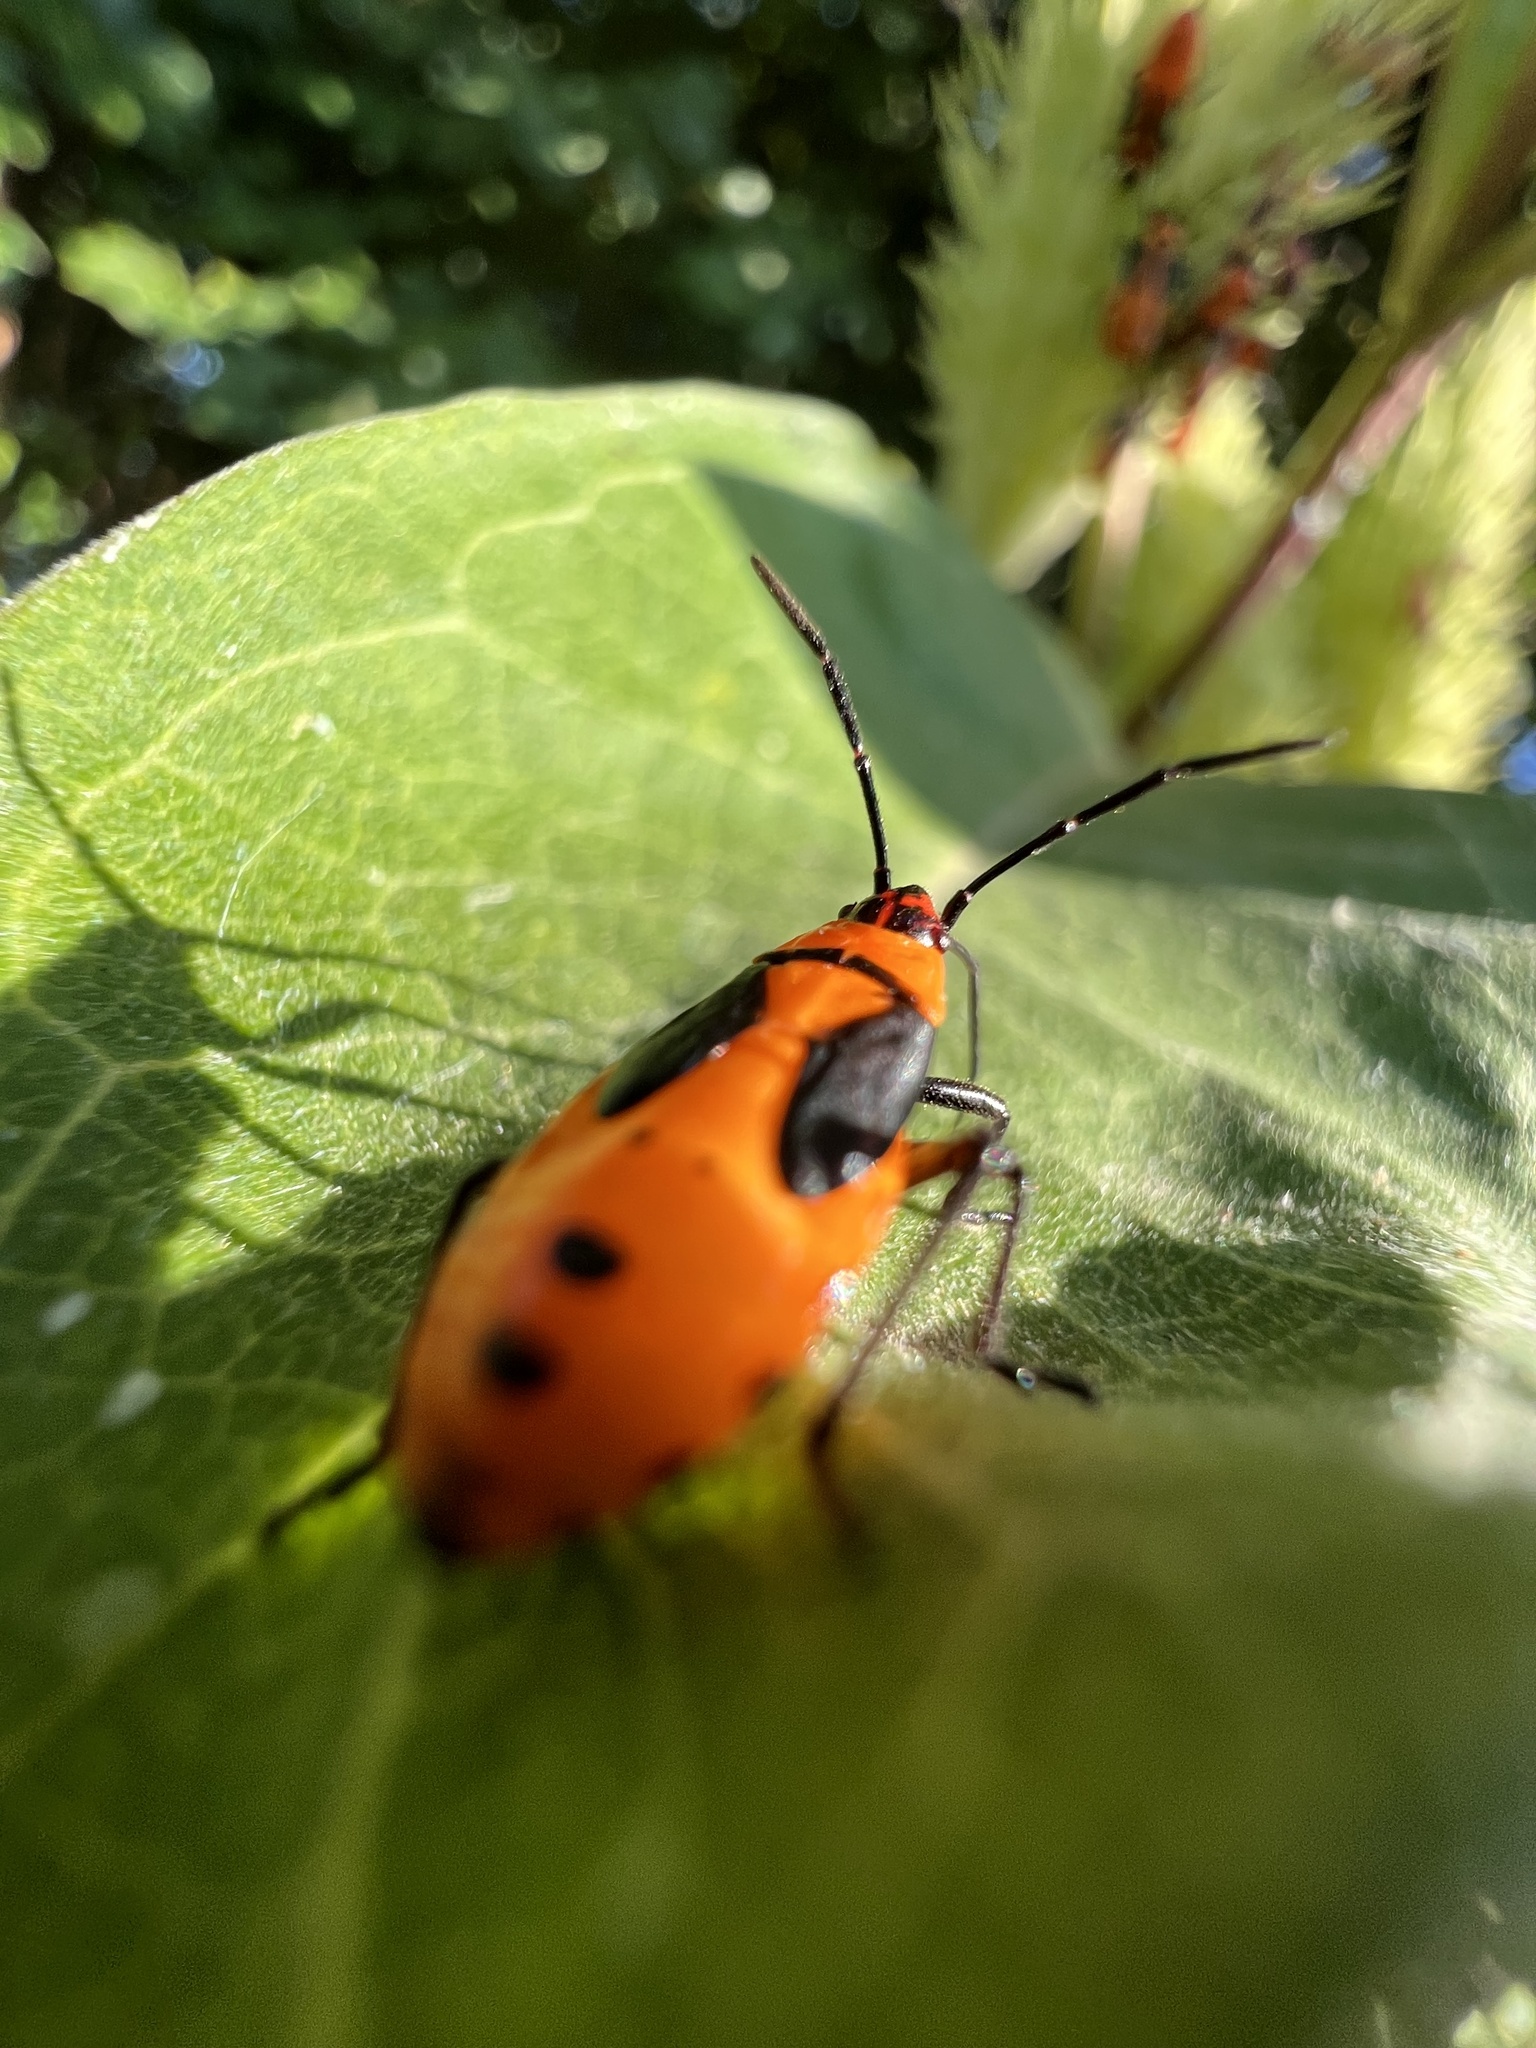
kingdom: Animalia
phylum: Arthropoda
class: Insecta
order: Hemiptera
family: Lygaeidae
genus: Oncopeltus
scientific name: Oncopeltus fasciatus
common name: Large milkweed bug
